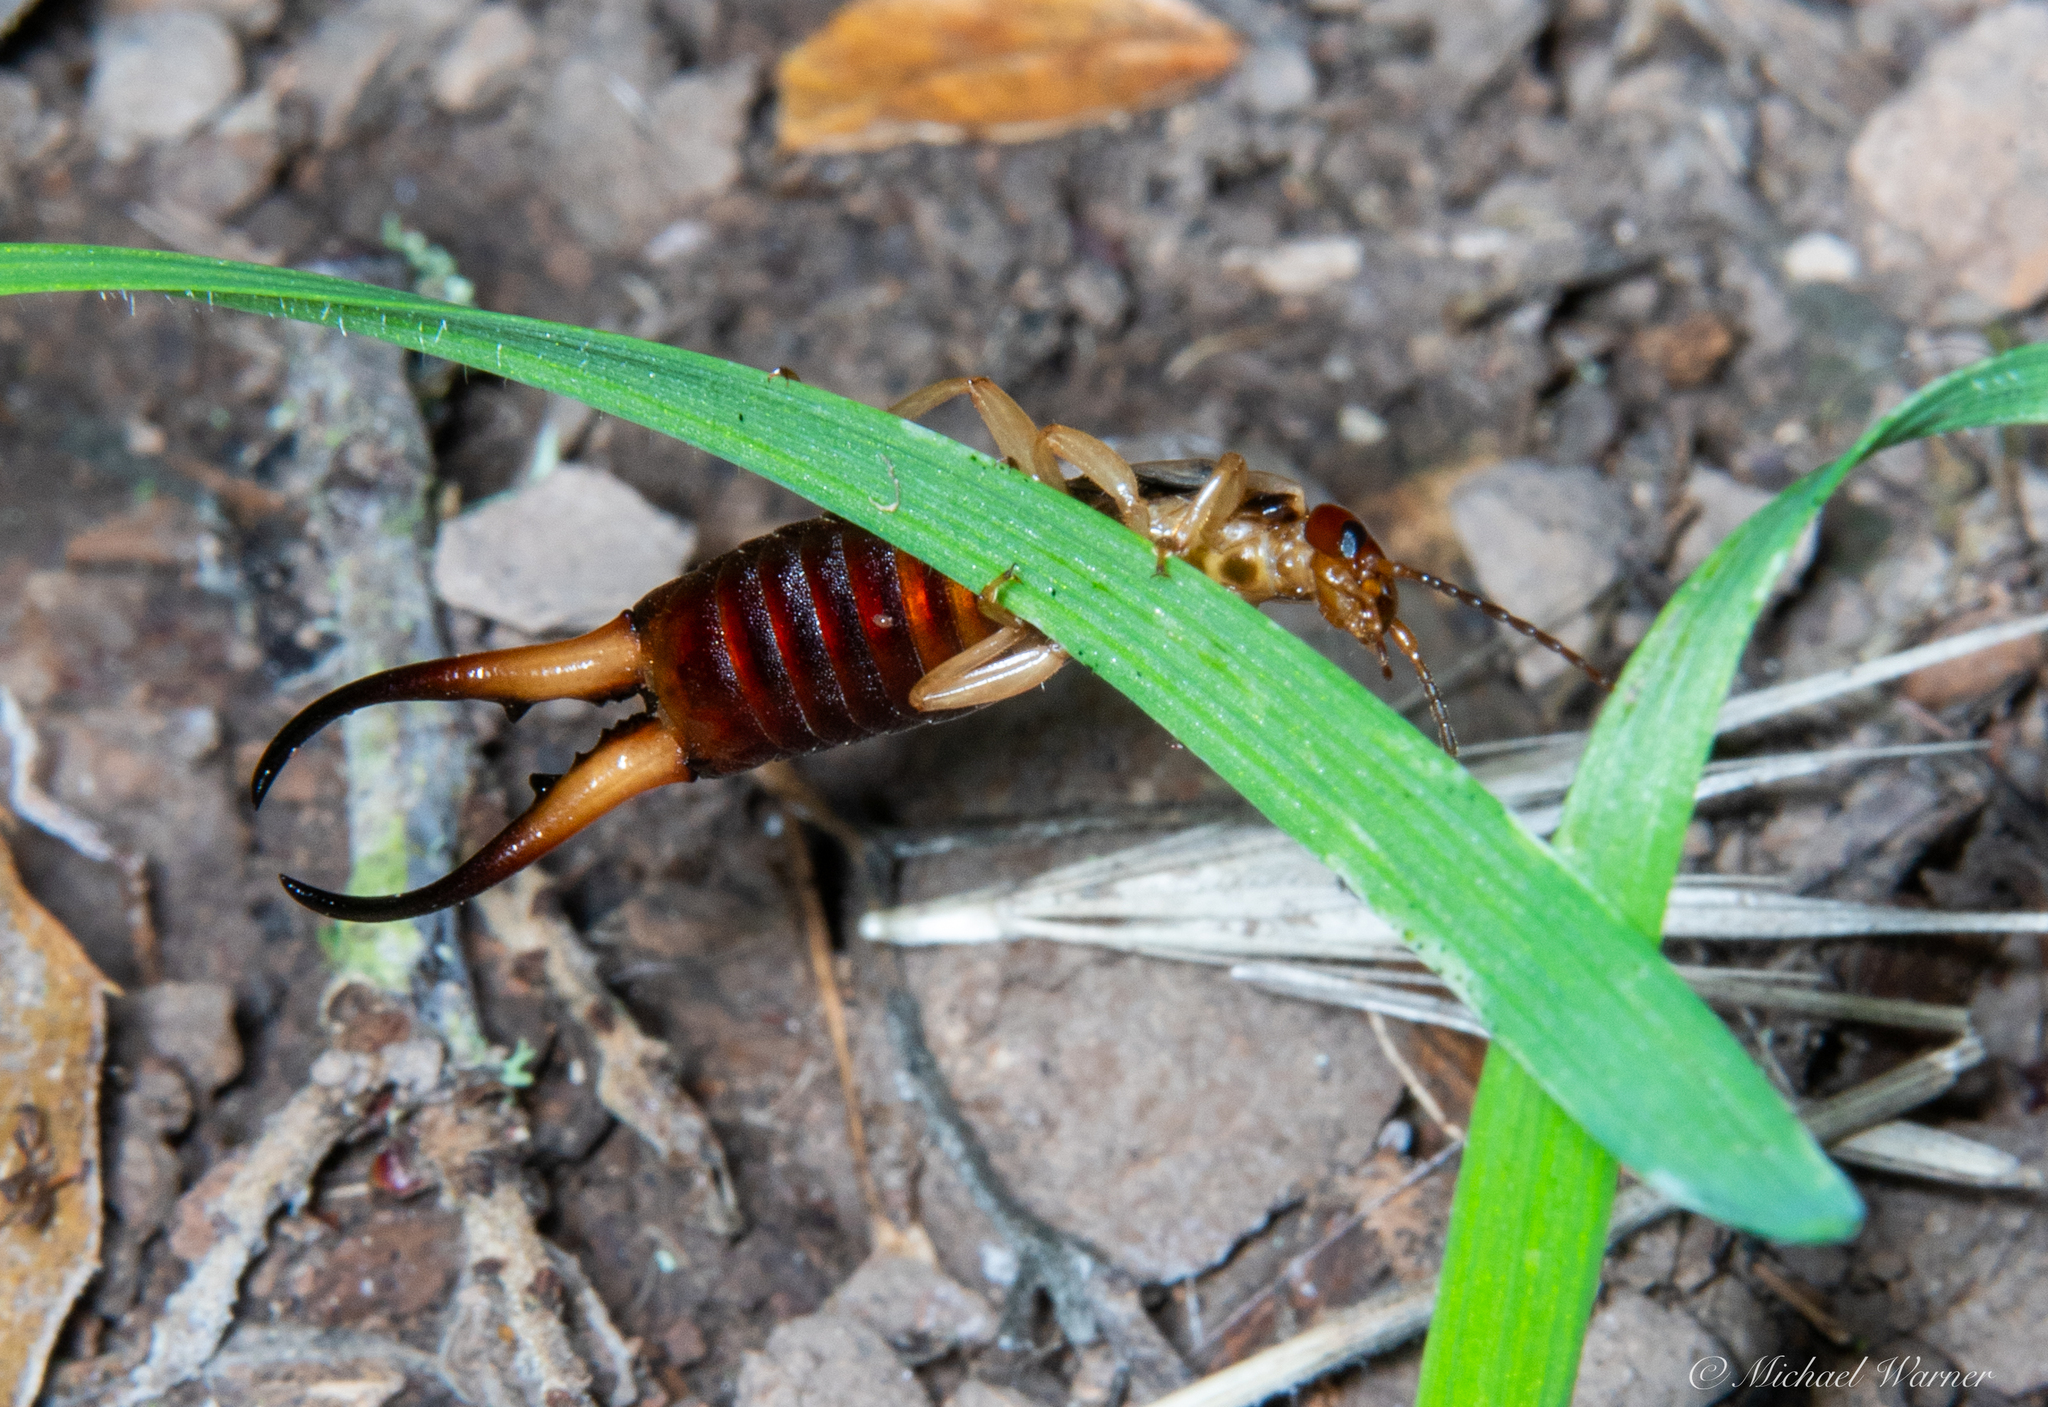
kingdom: Animalia
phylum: Arthropoda
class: Insecta
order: Dermaptera
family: Forficulidae
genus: Forficula
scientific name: Forficula dentata
